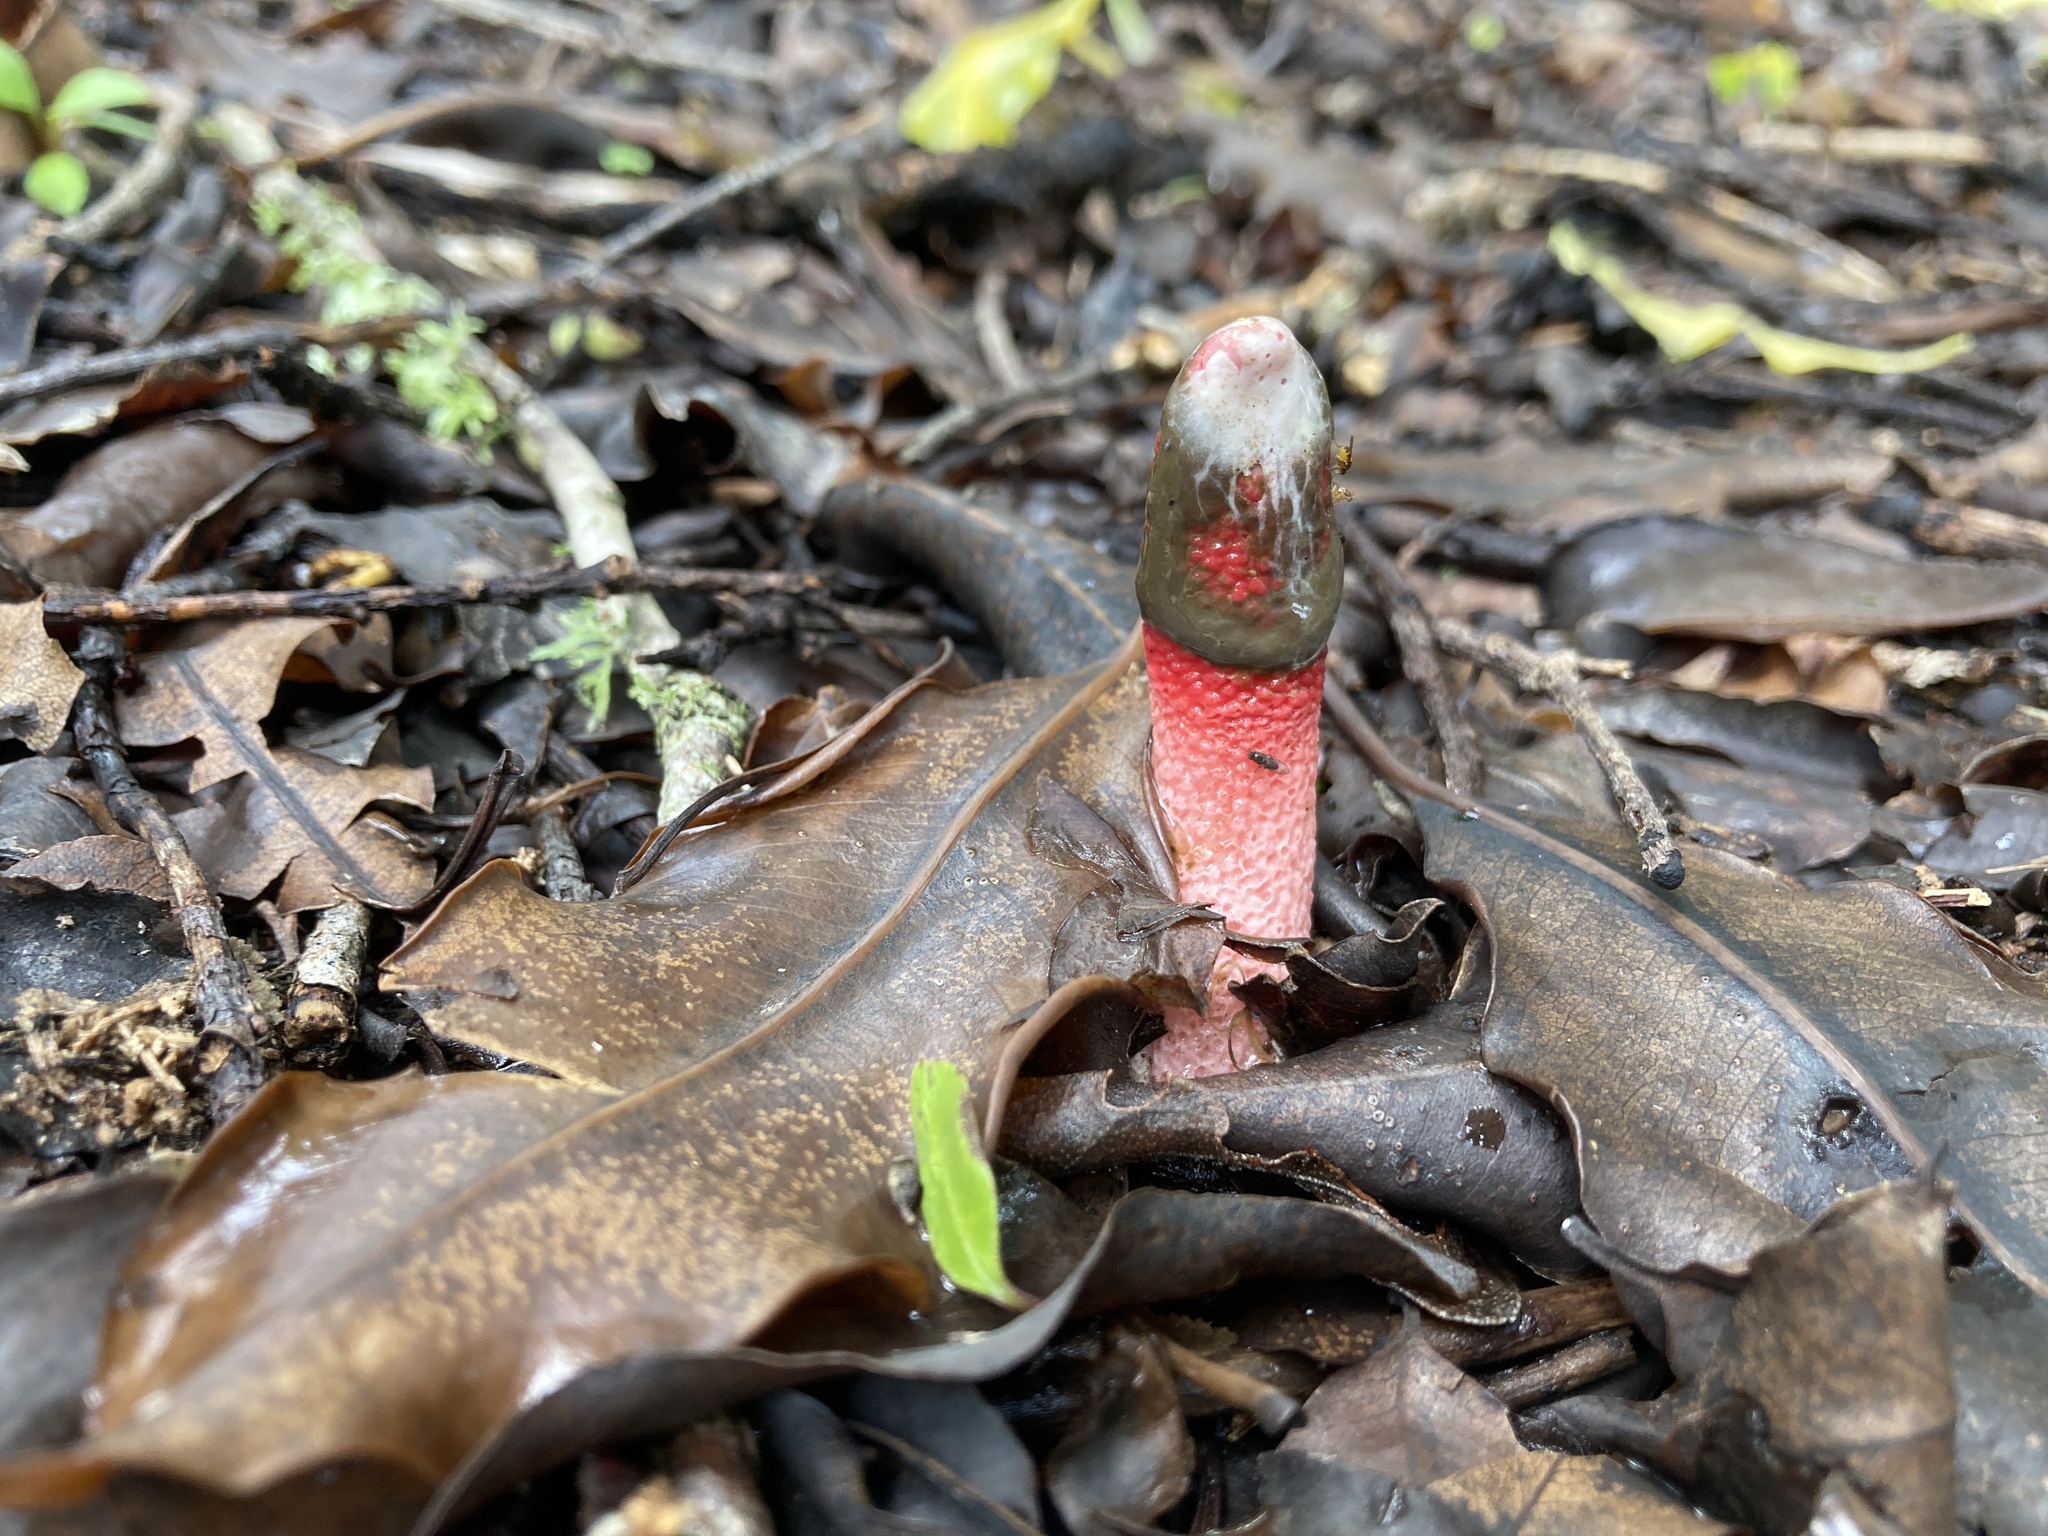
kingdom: Fungi
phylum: Basidiomycota
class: Agaricomycetes
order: Phallales
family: Phallaceae
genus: Mutinus
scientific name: Mutinus ravenelii
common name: Red stinkhorn
